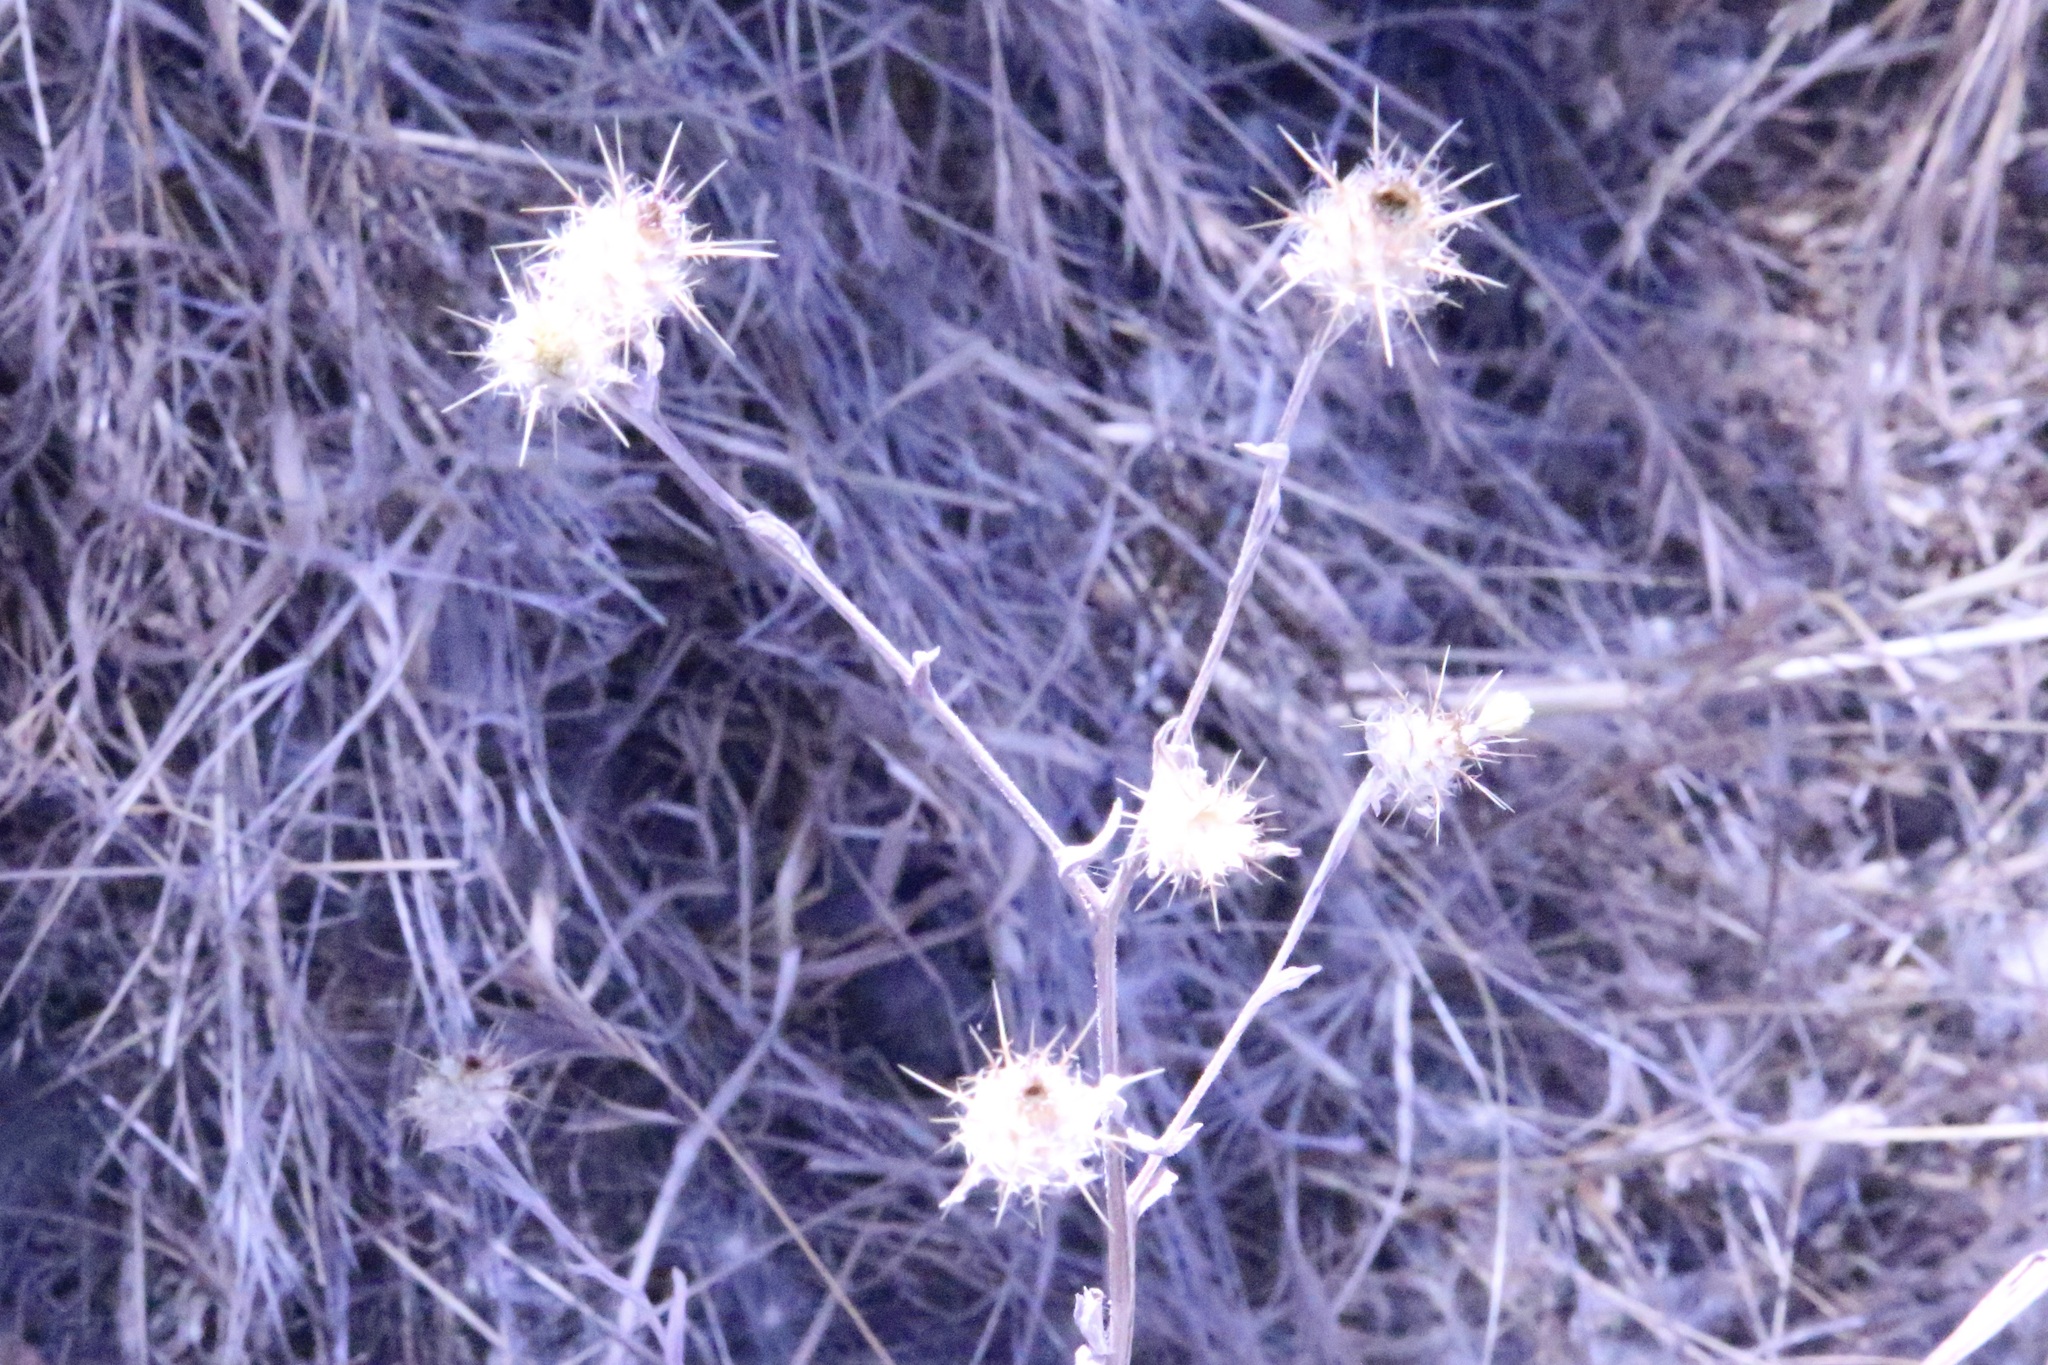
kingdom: Plantae
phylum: Tracheophyta
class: Magnoliopsida
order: Asterales
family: Asteraceae
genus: Centaurea
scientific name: Centaurea melitensis
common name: Maltese star-thistle
